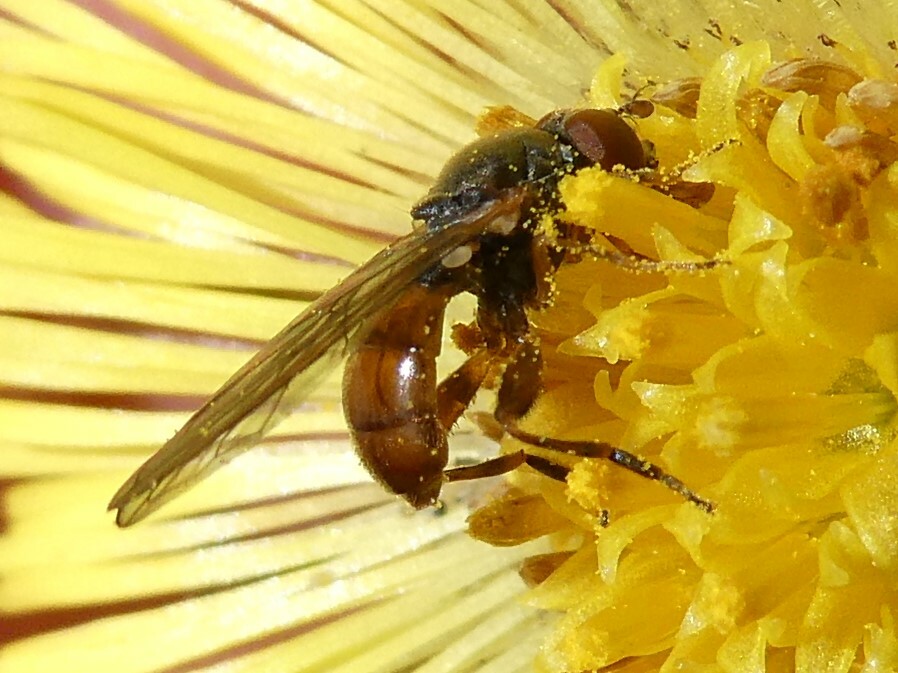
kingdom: Animalia
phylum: Arthropoda
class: Insecta
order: Diptera
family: Syrphidae
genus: Sphegina
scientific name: Sphegina
